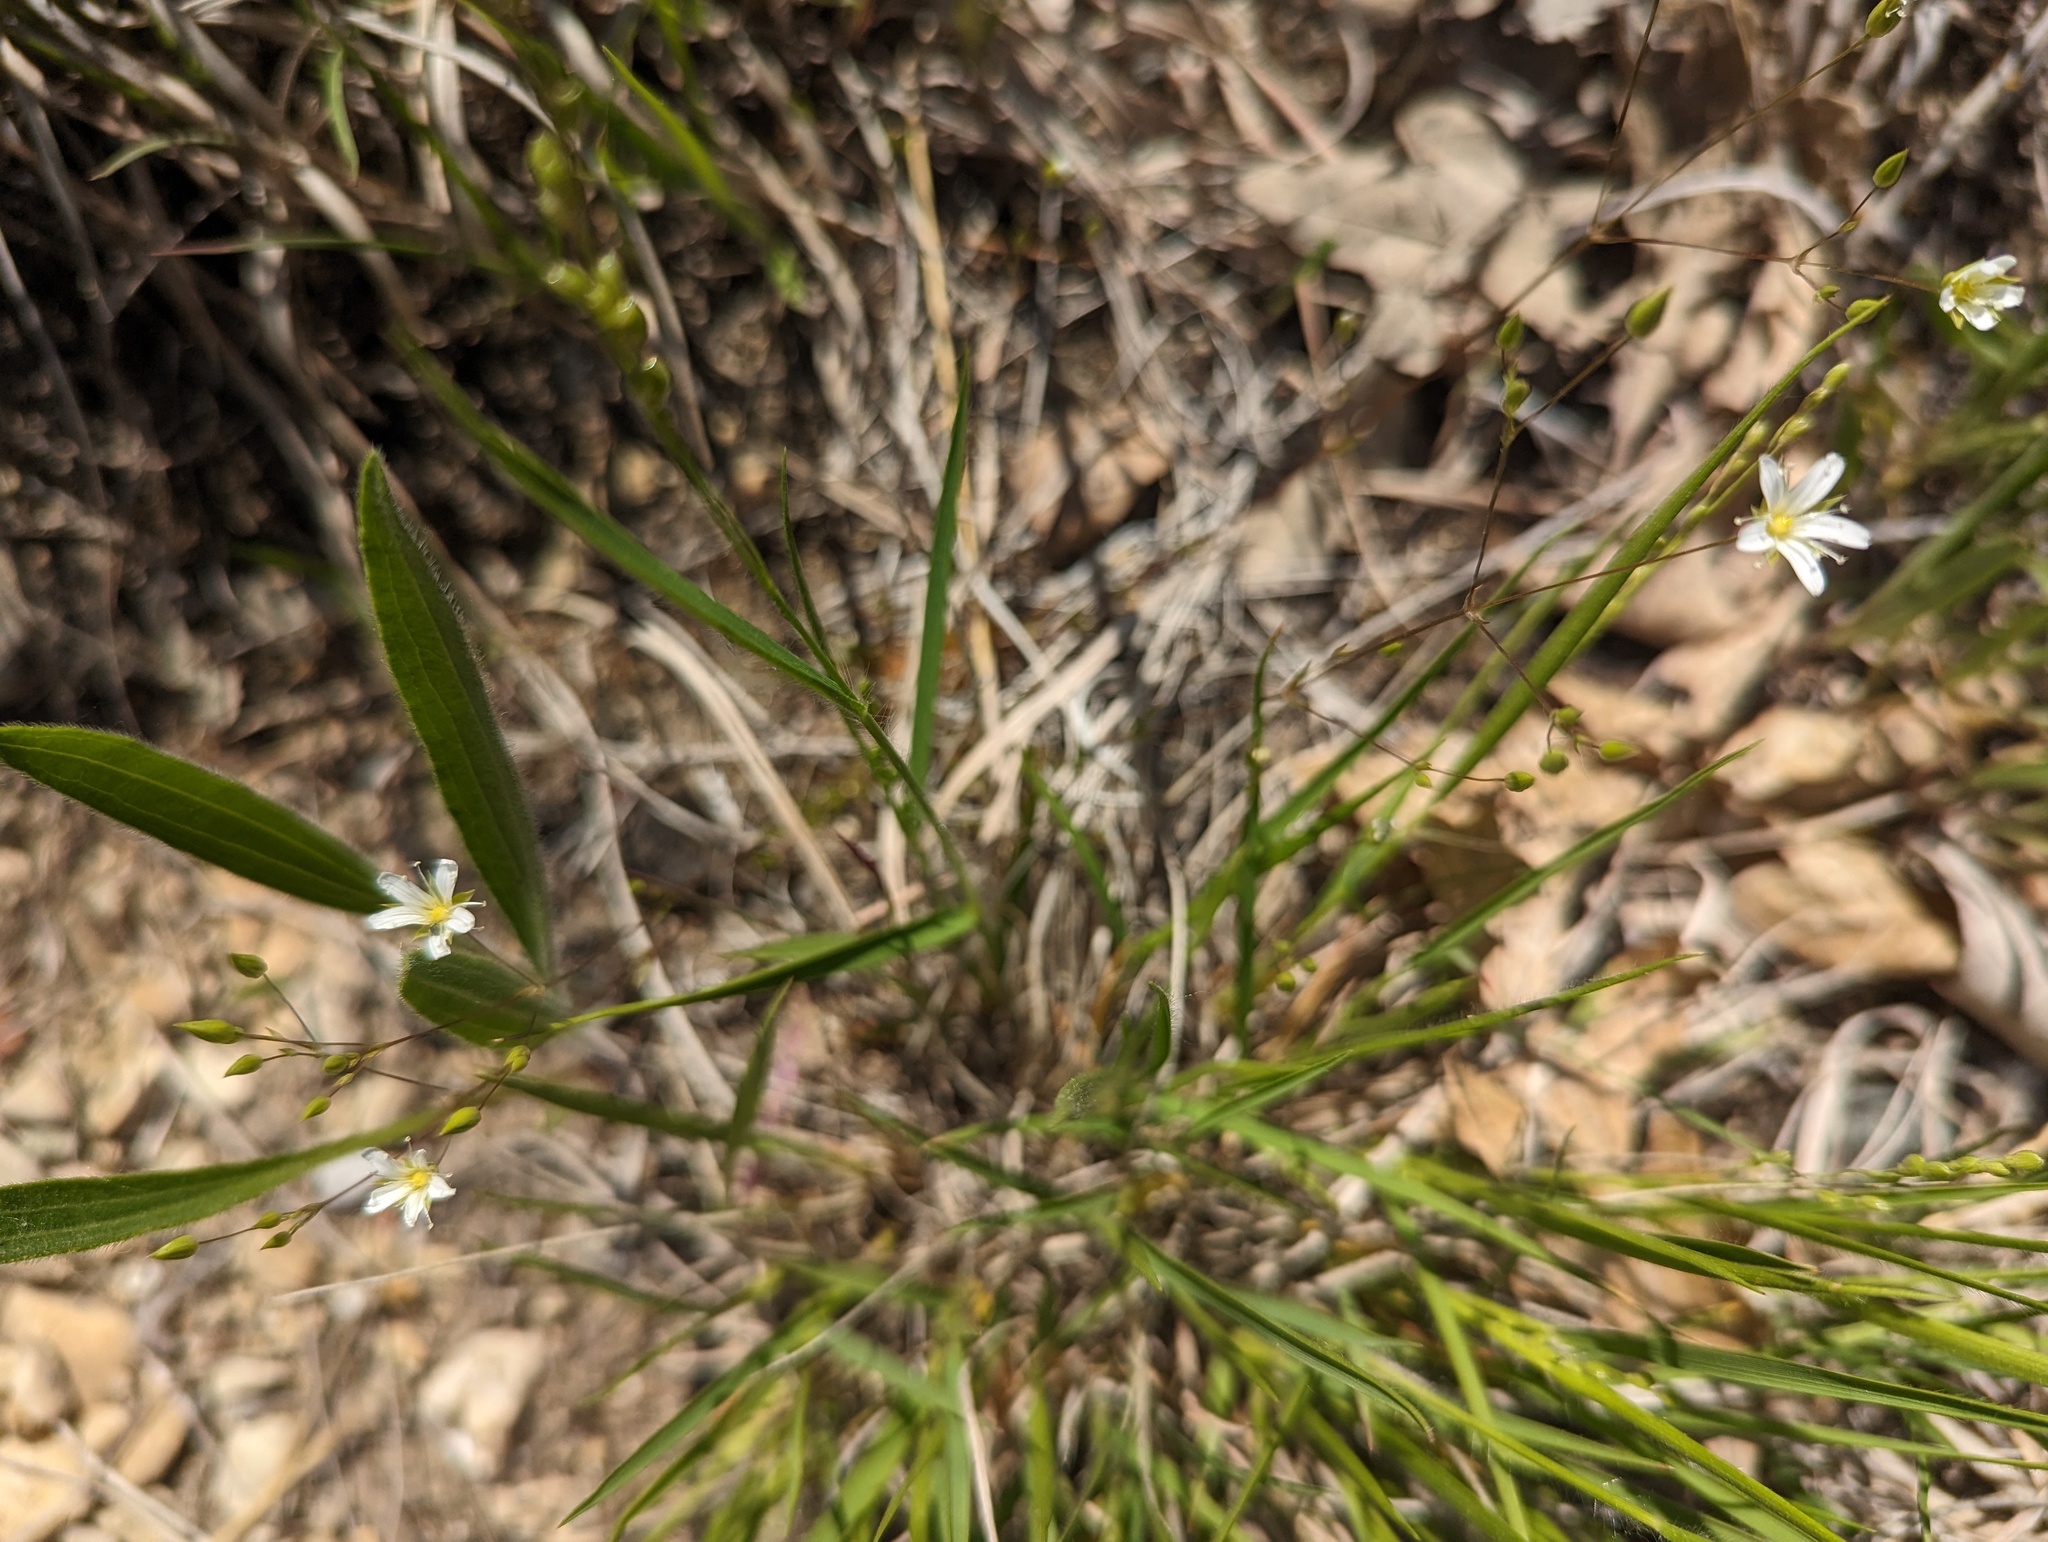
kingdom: Plantae
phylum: Tracheophyta
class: Magnoliopsida
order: Caryophyllales
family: Caryophyllaceae
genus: Sabulina
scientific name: Sabulina michauxii
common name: Michaux's stitchwort
